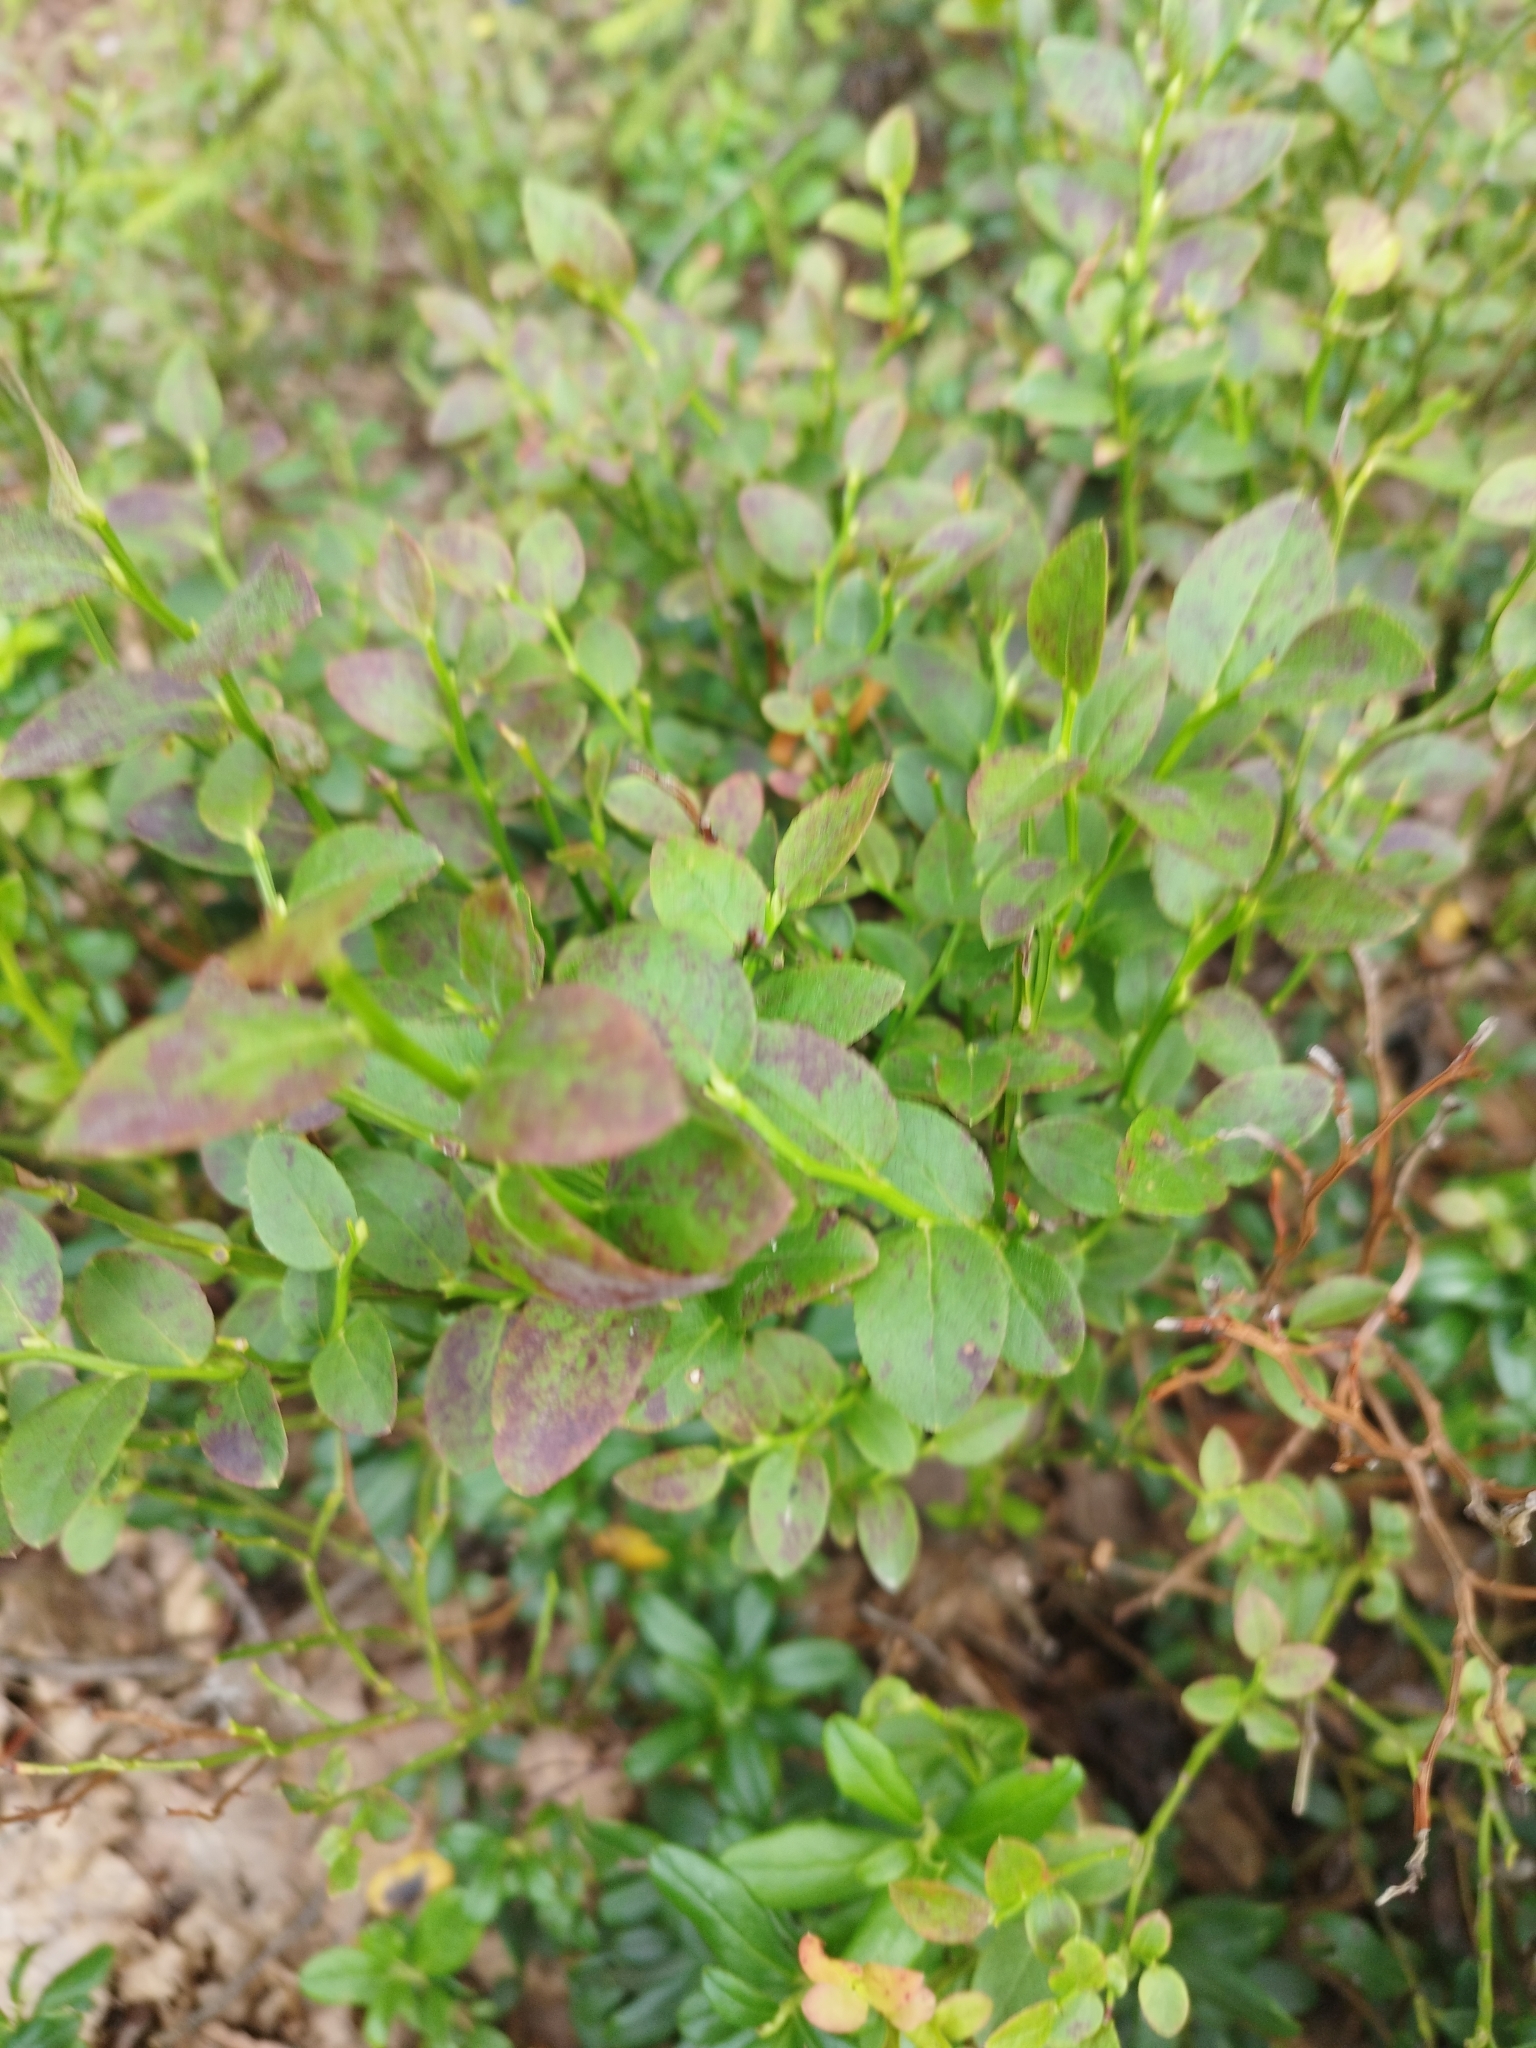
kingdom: Plantae
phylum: Tracheophyta
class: Magnoliopsida
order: Ericales
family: Ericaceae
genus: Vaccinium
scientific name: Vaccinium myrtillus
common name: Bilberry
